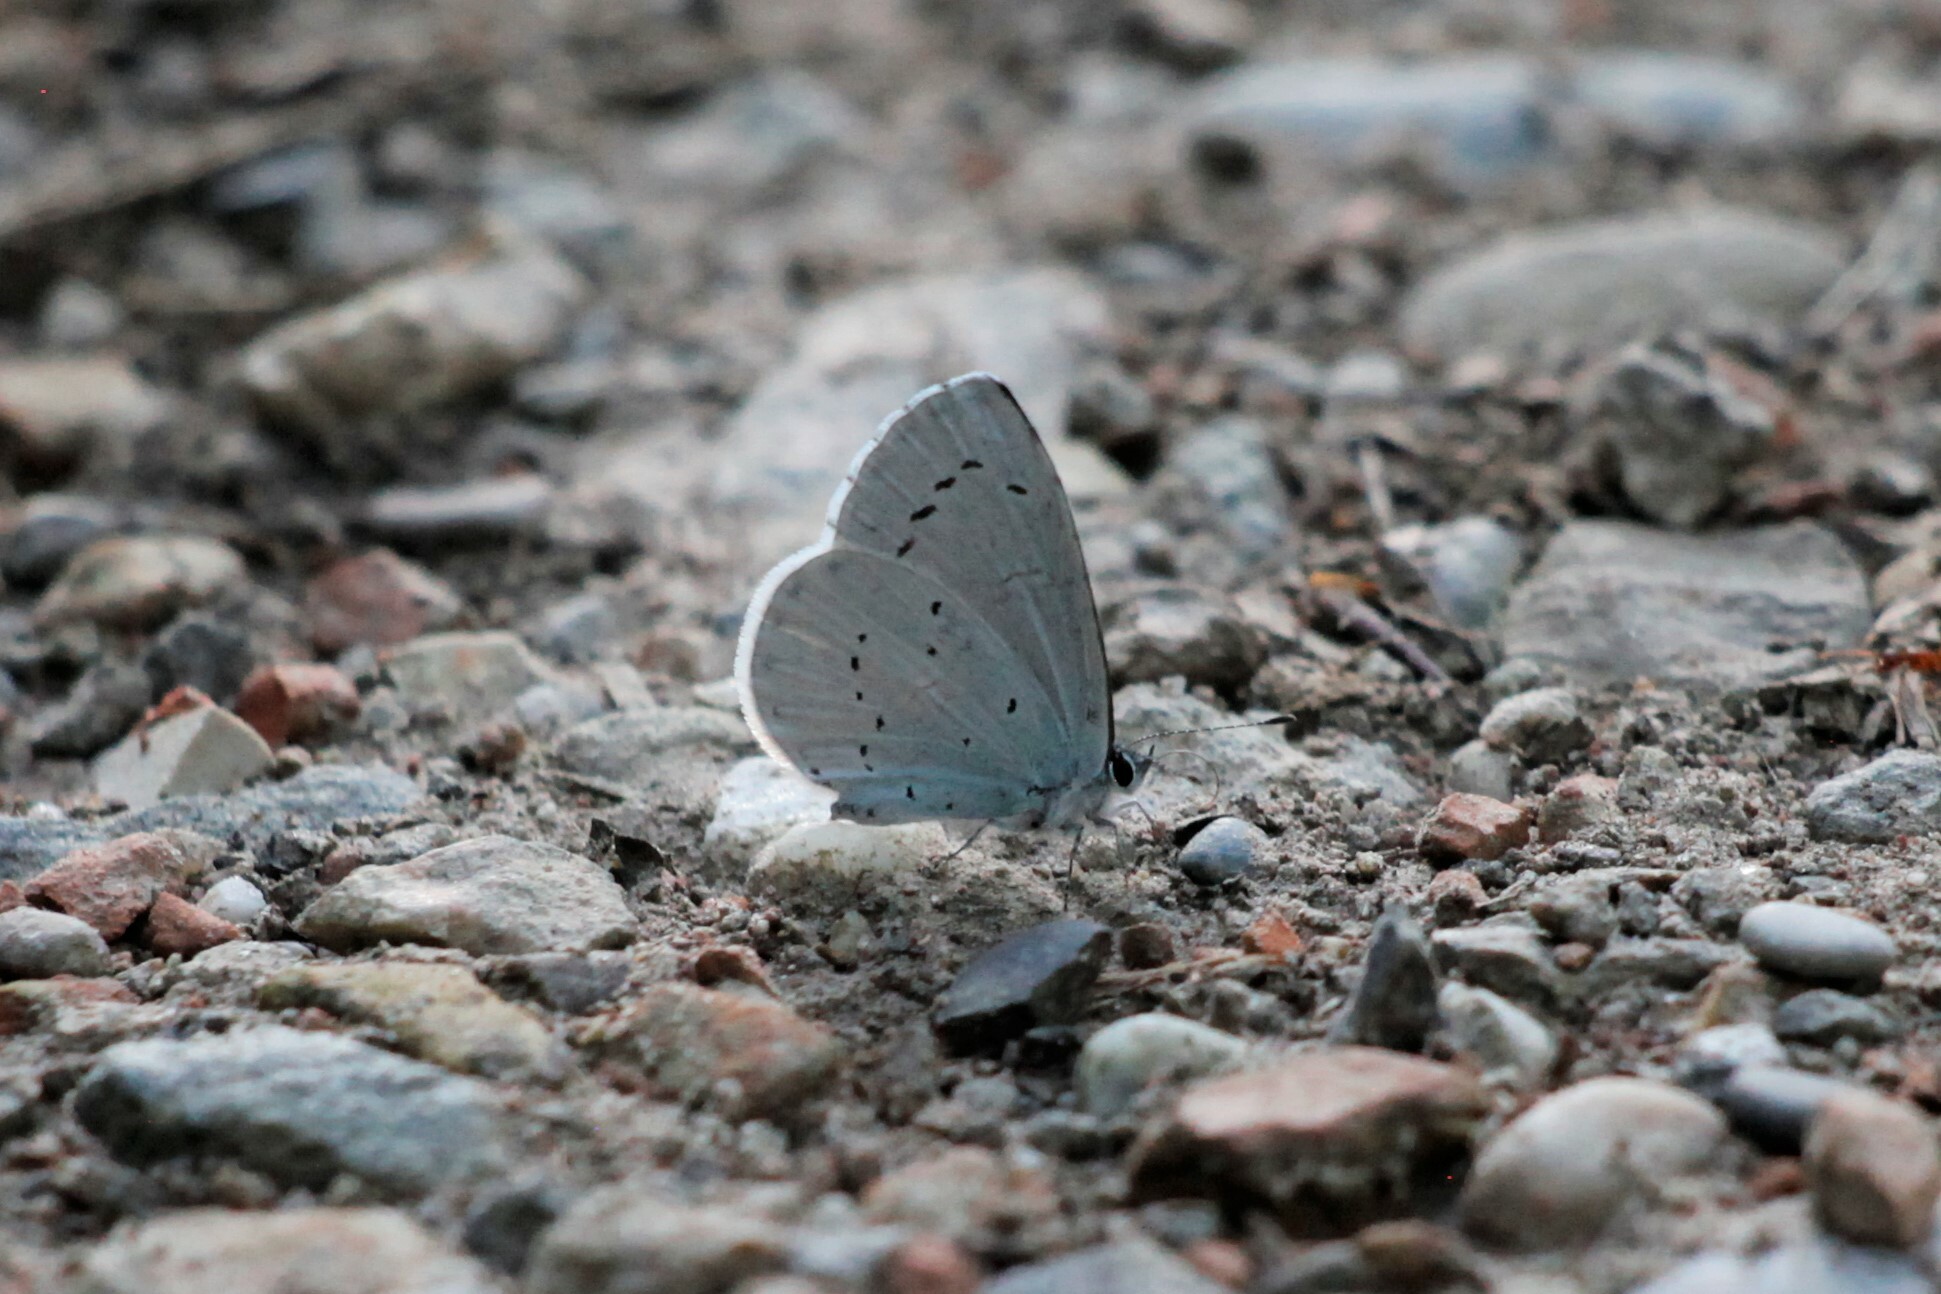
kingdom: Animalia
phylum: Arthropoda
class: Insecta
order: Lepidoptera
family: Lycaenidae
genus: Celastrina
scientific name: Celastrina argiolus
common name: Holly blue
